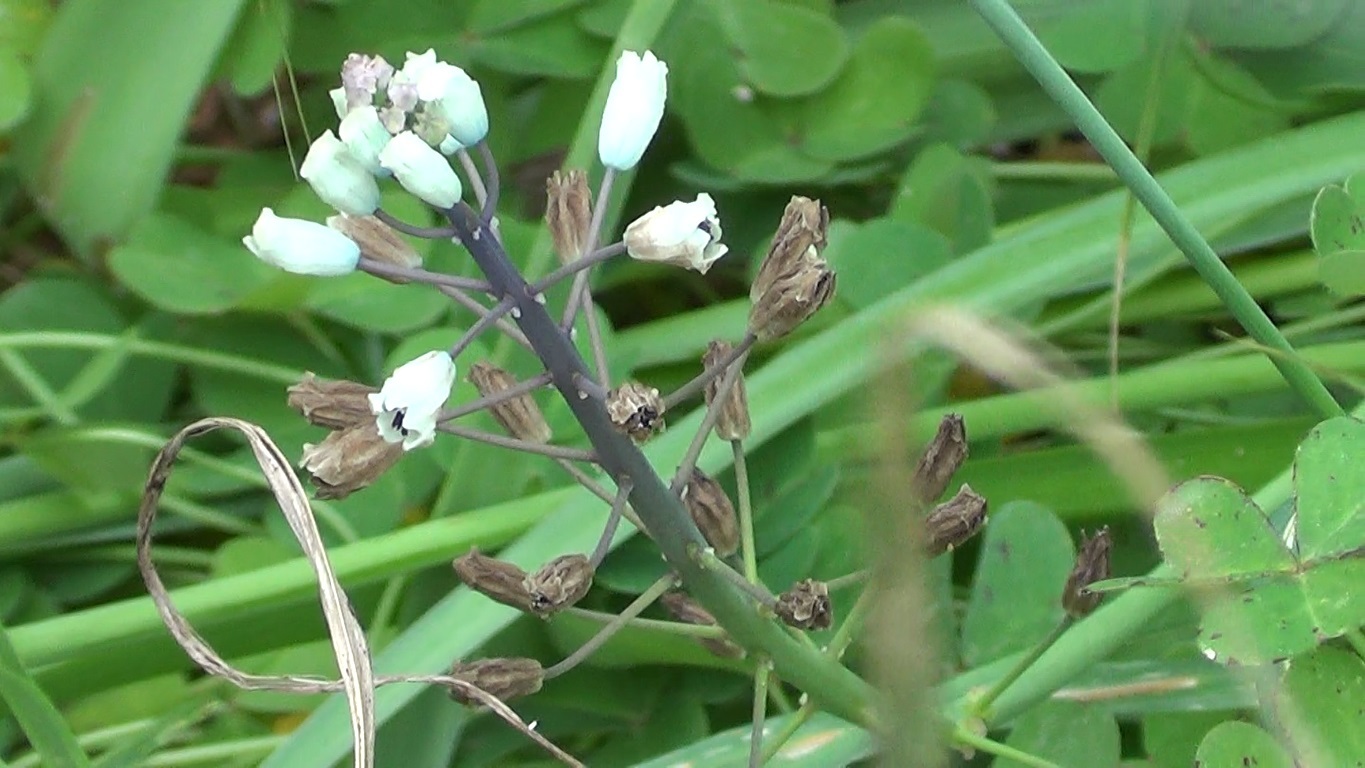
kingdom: Plantae
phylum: Tracheophyta
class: Liliopsida
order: Asparagales
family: Asparagaceae
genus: Bellevalia
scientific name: Bellevalia romana
